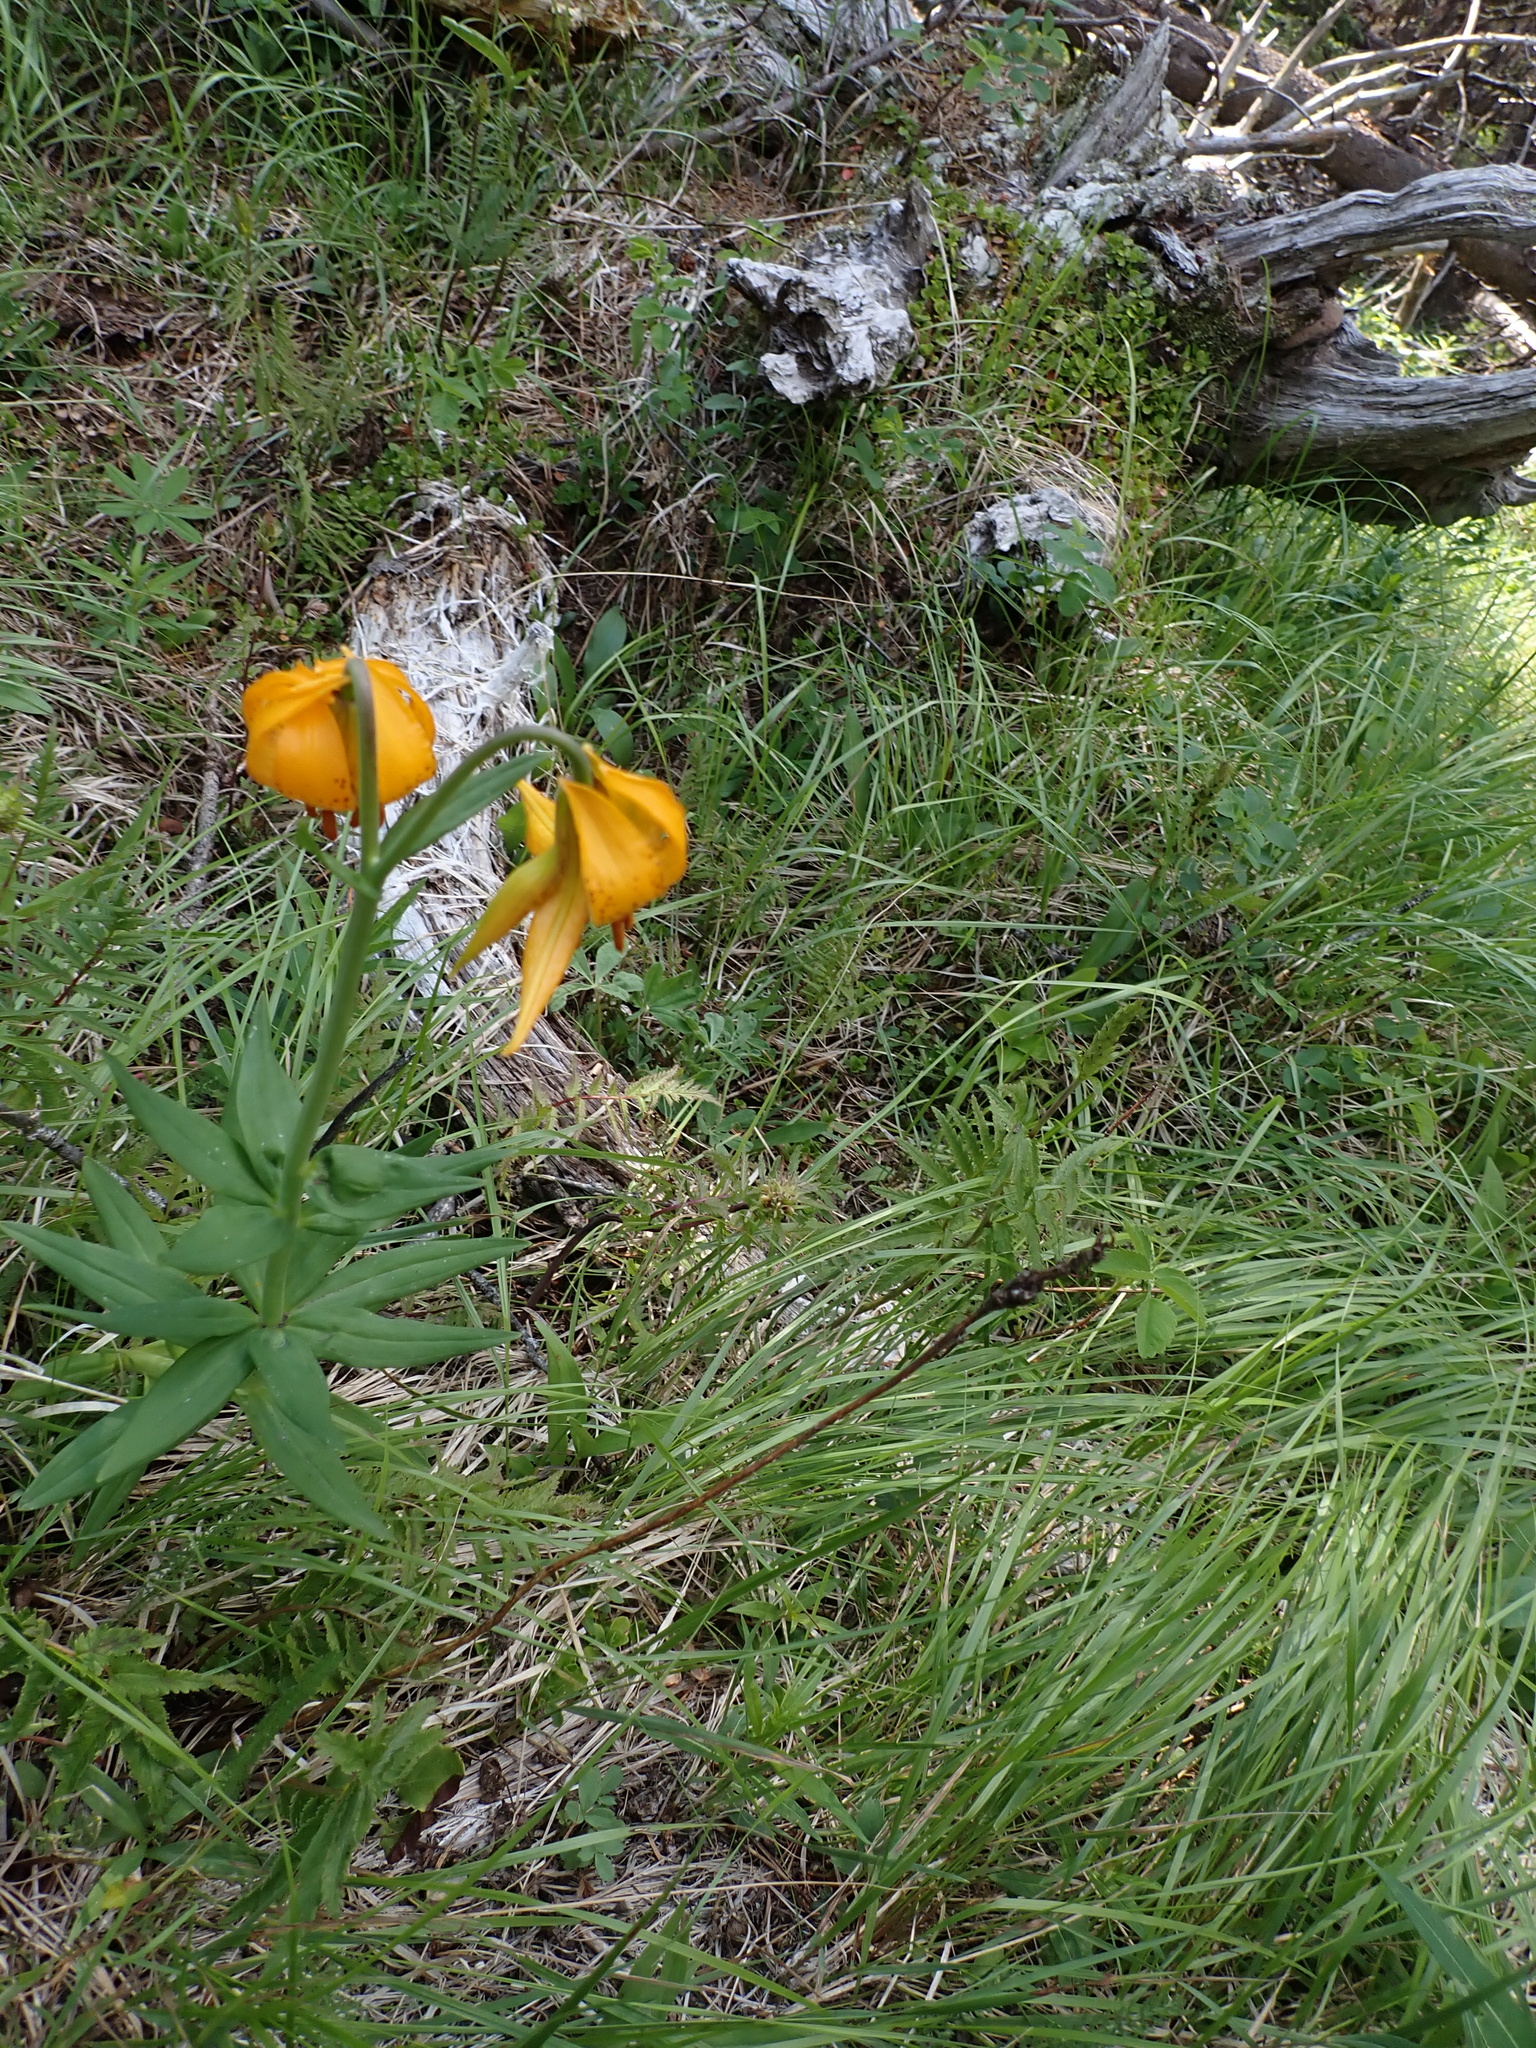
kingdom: Plantae
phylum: Tracheophyta
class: Liliopsida
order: Liliales
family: Liliaceae
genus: Lilium
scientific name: Lilium columbianum
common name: Columbia lily
